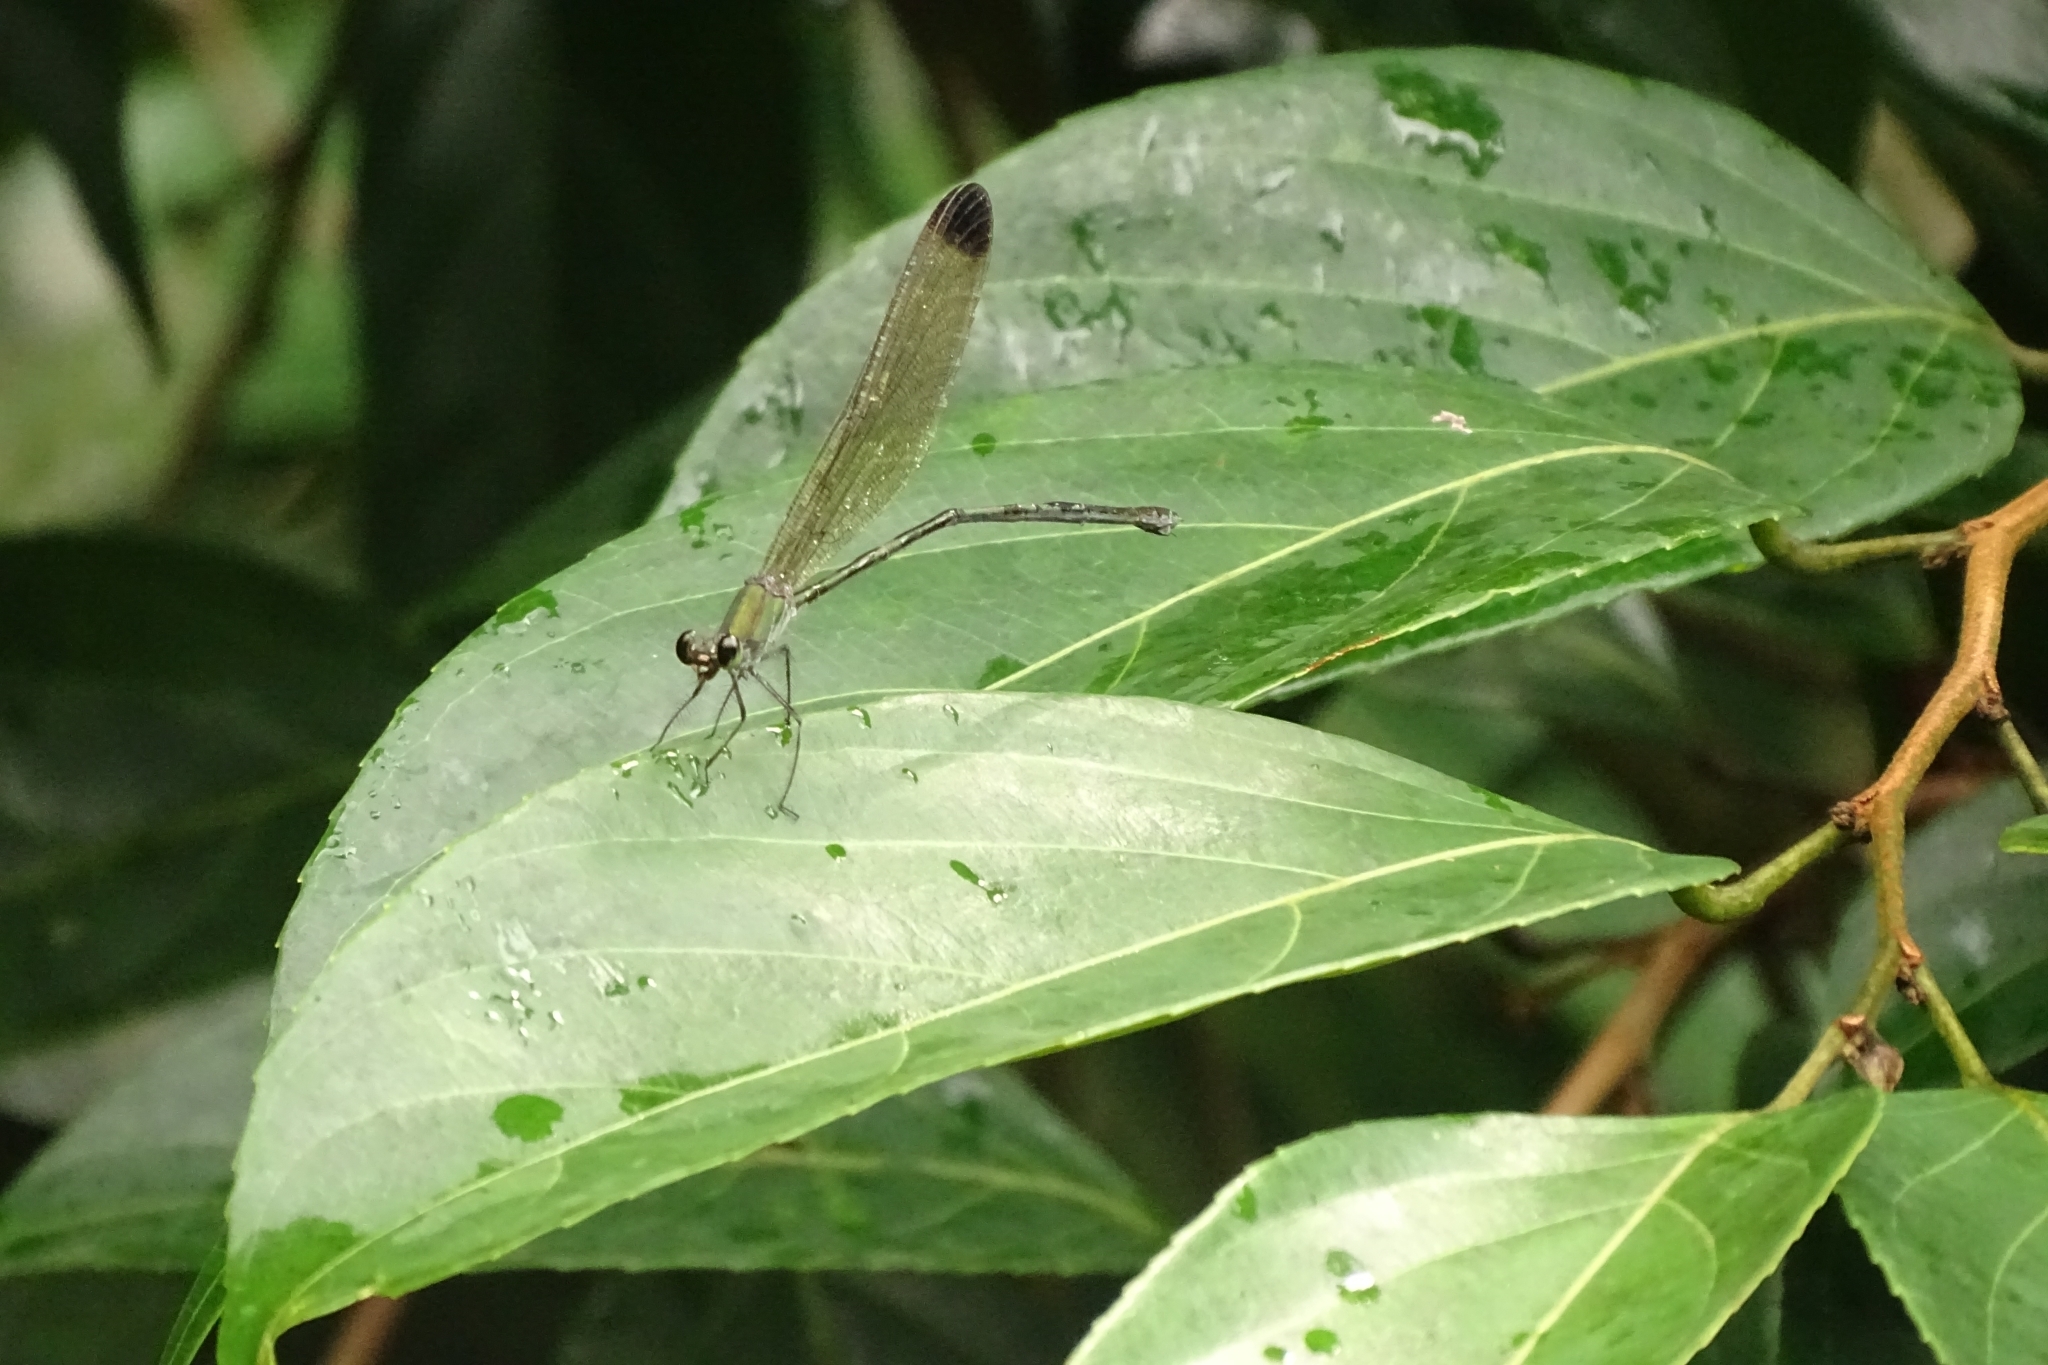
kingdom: Animalia
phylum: Arthropoda
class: Insecta
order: Odonata
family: Calopterygidae
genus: Vestalis
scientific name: Vestalis apicalis
